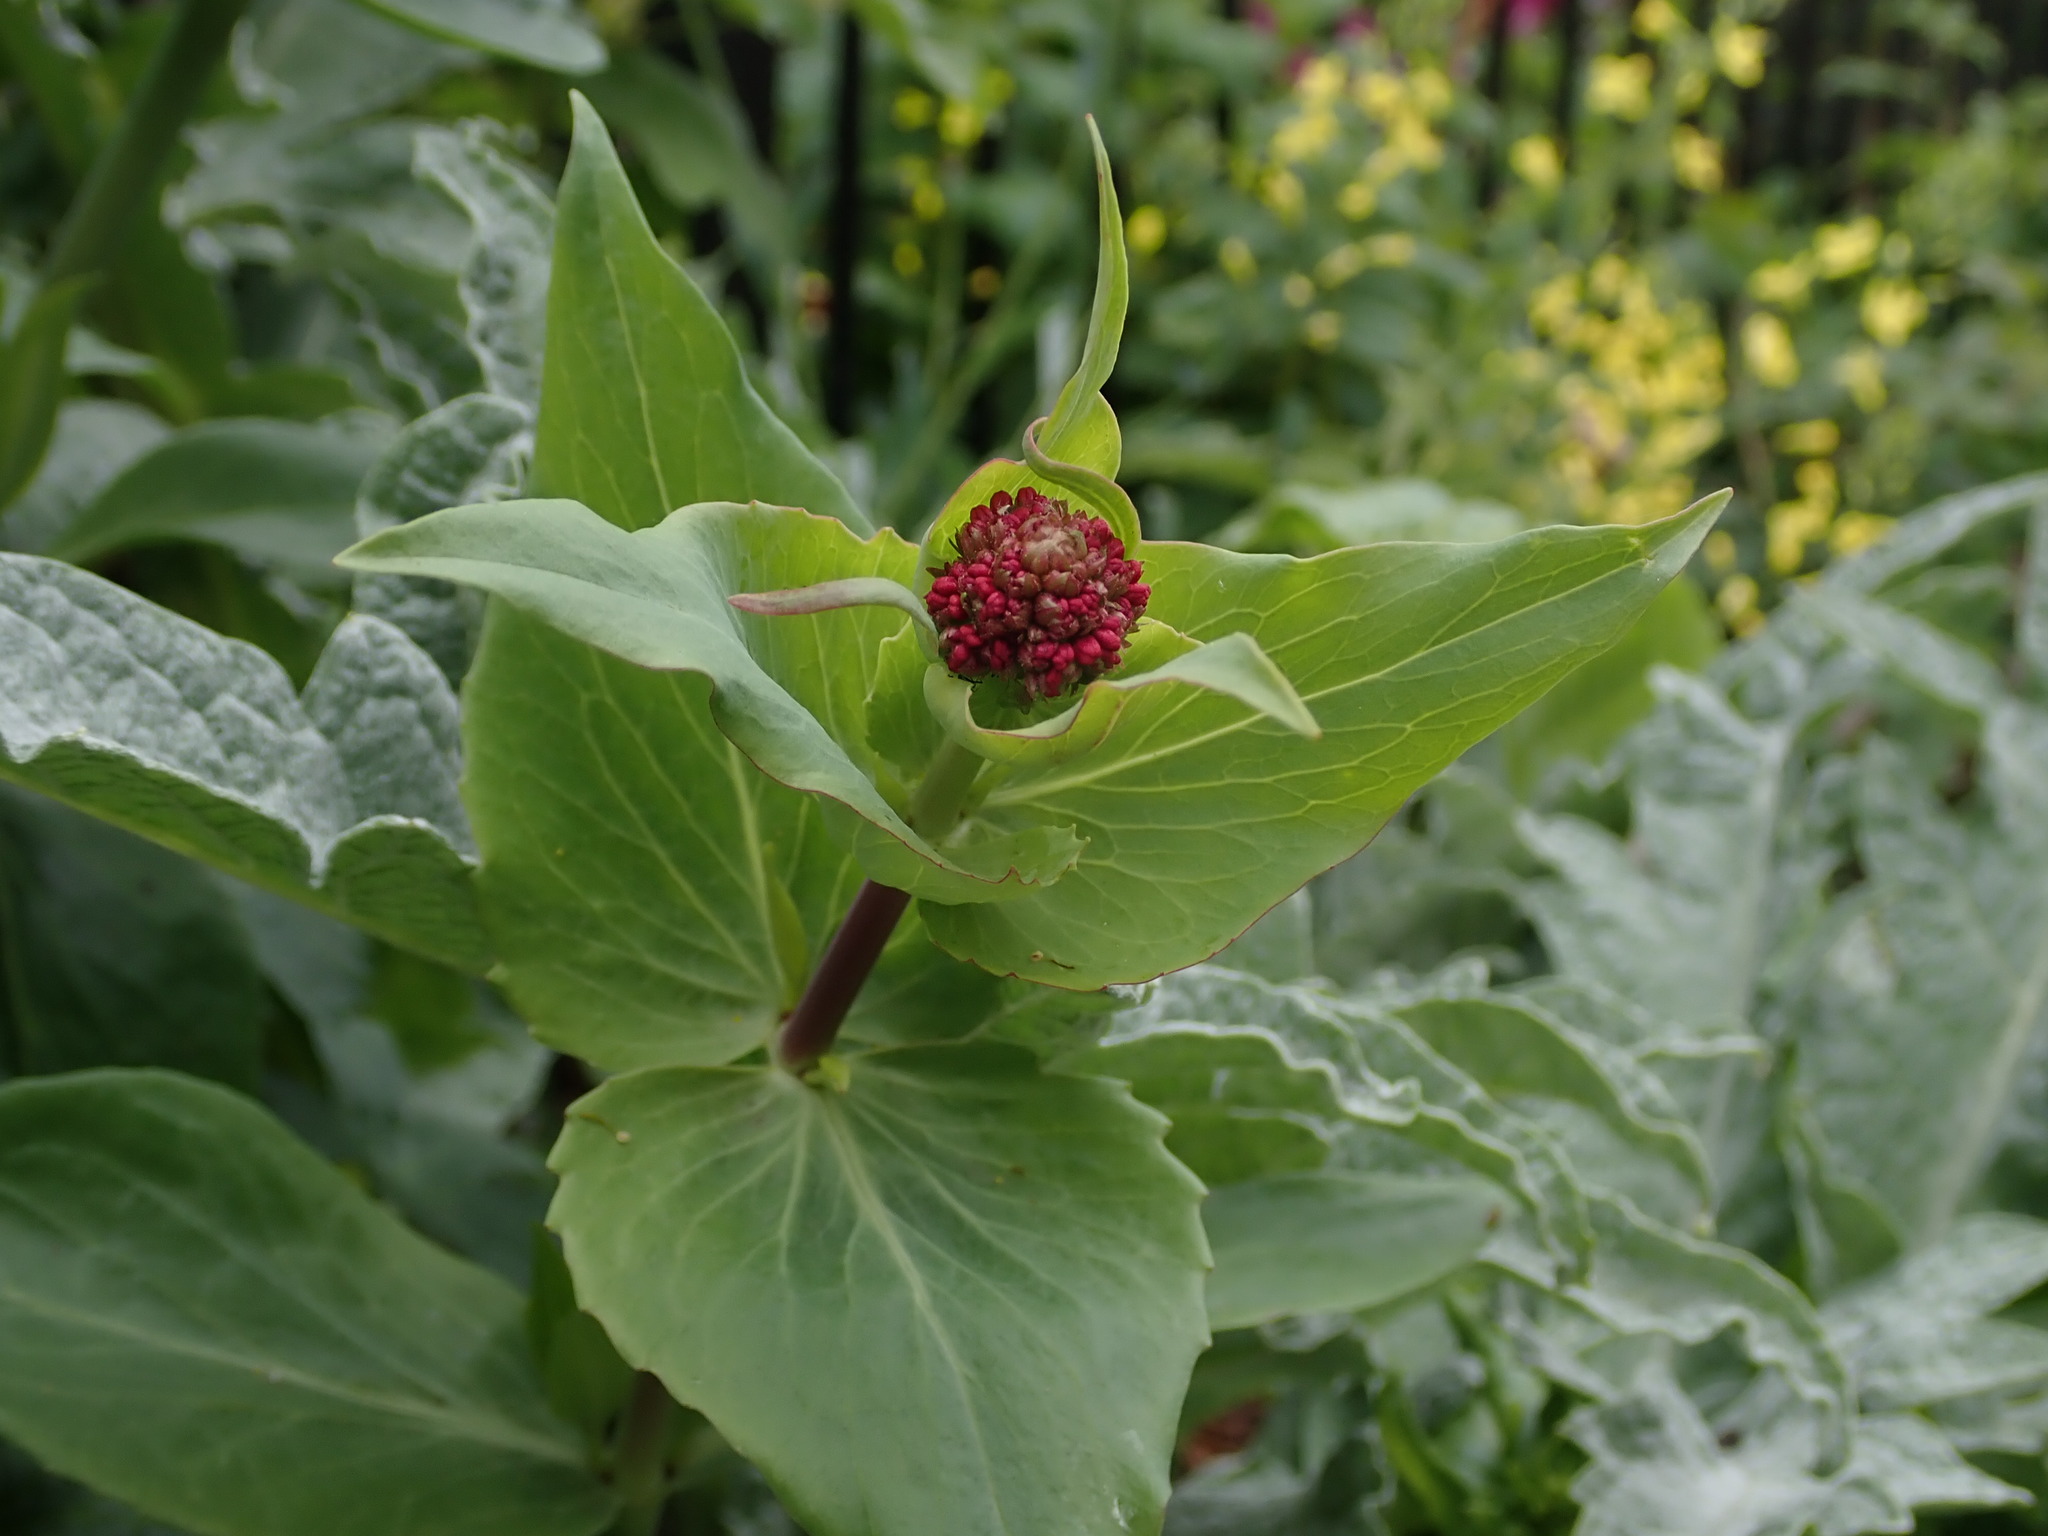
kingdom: Plantae
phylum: Tracheophyta
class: Magnoliopsida
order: Dipsacales
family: Caprifoliaceae
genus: Centranthus
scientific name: Centranthus ruber
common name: Red valerian
